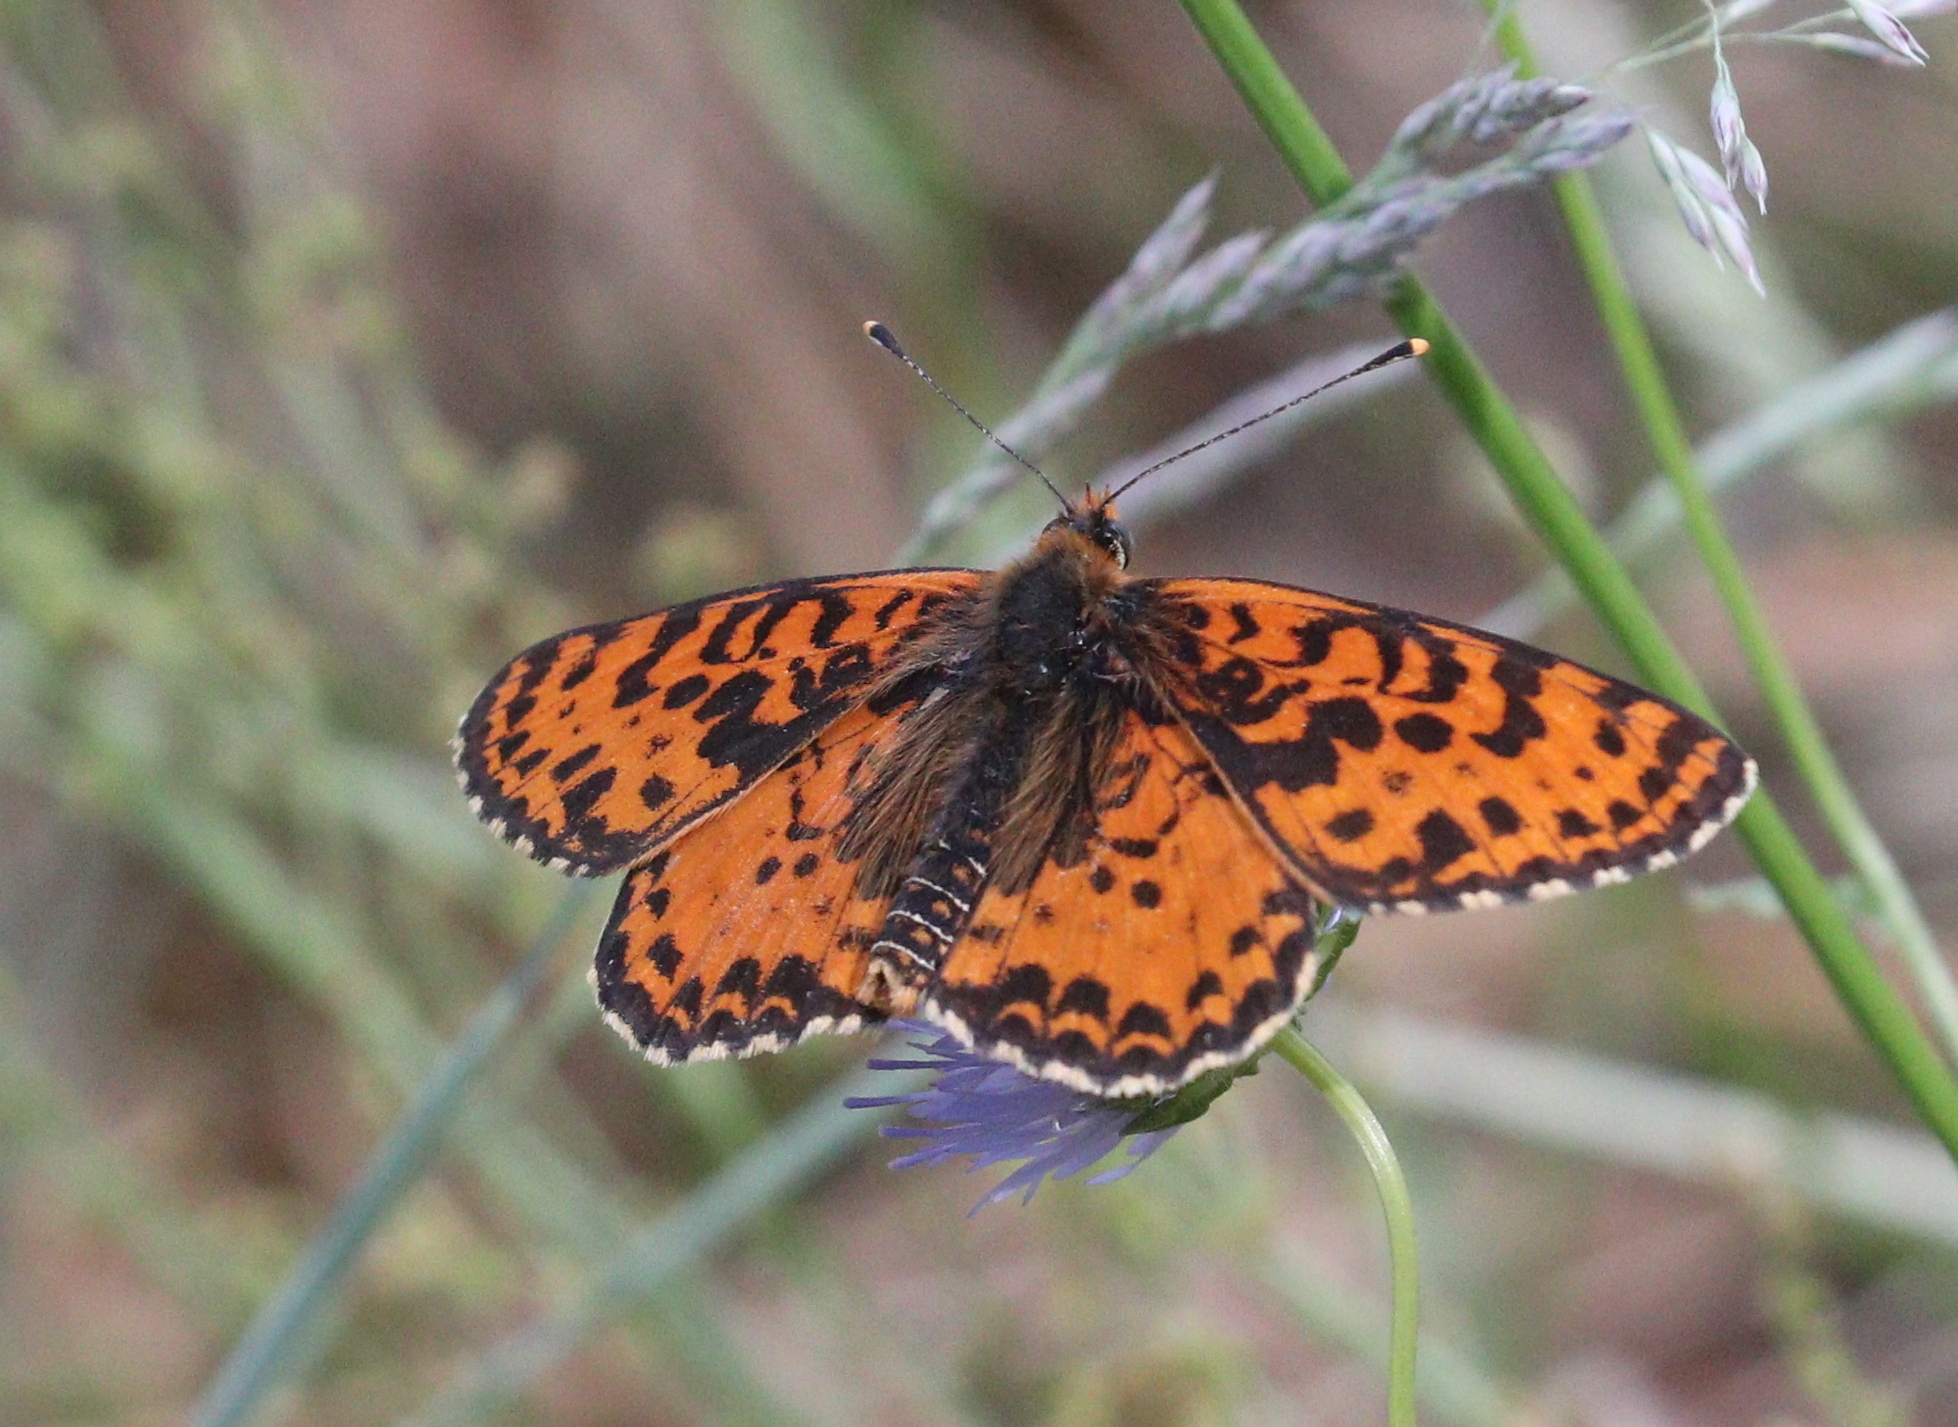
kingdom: Animalia
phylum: Arthropoda
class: Insecta
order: Lepidoptera
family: Nymphalidae
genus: Melitaea
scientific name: Melitaea didyma
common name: Spotted fritillary
